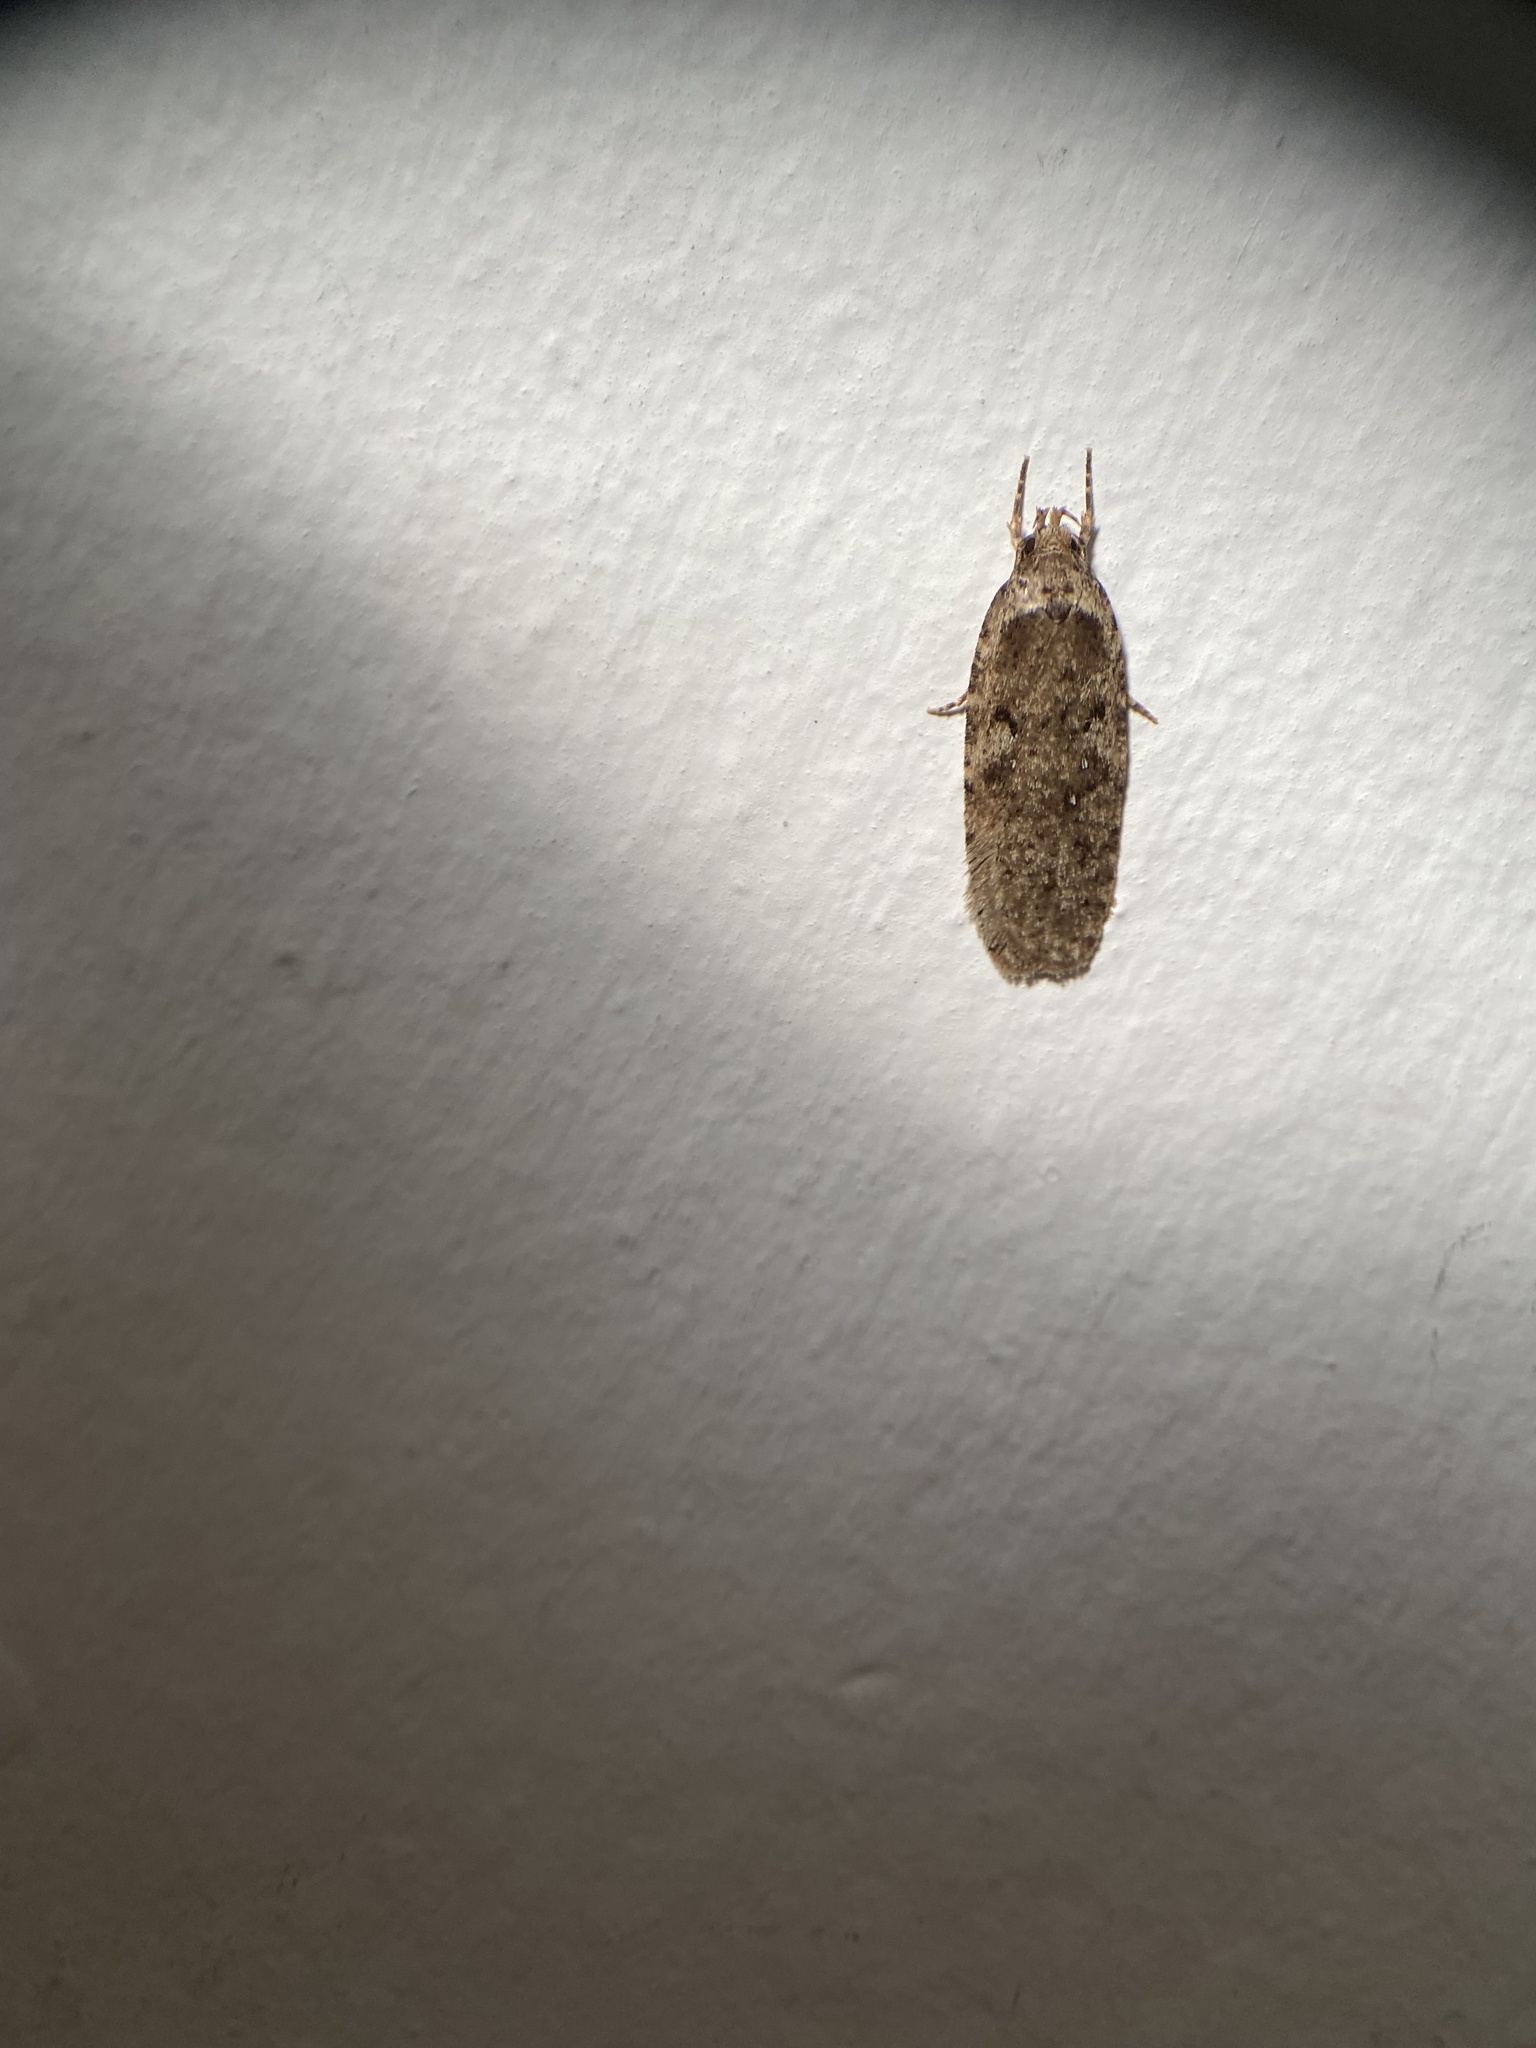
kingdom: Animalia
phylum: Arthropoda
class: Insecta
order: Lepidoptera
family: Depressariidae
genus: Agonopterix
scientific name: Agonopterix heracliana
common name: Common flat-body
